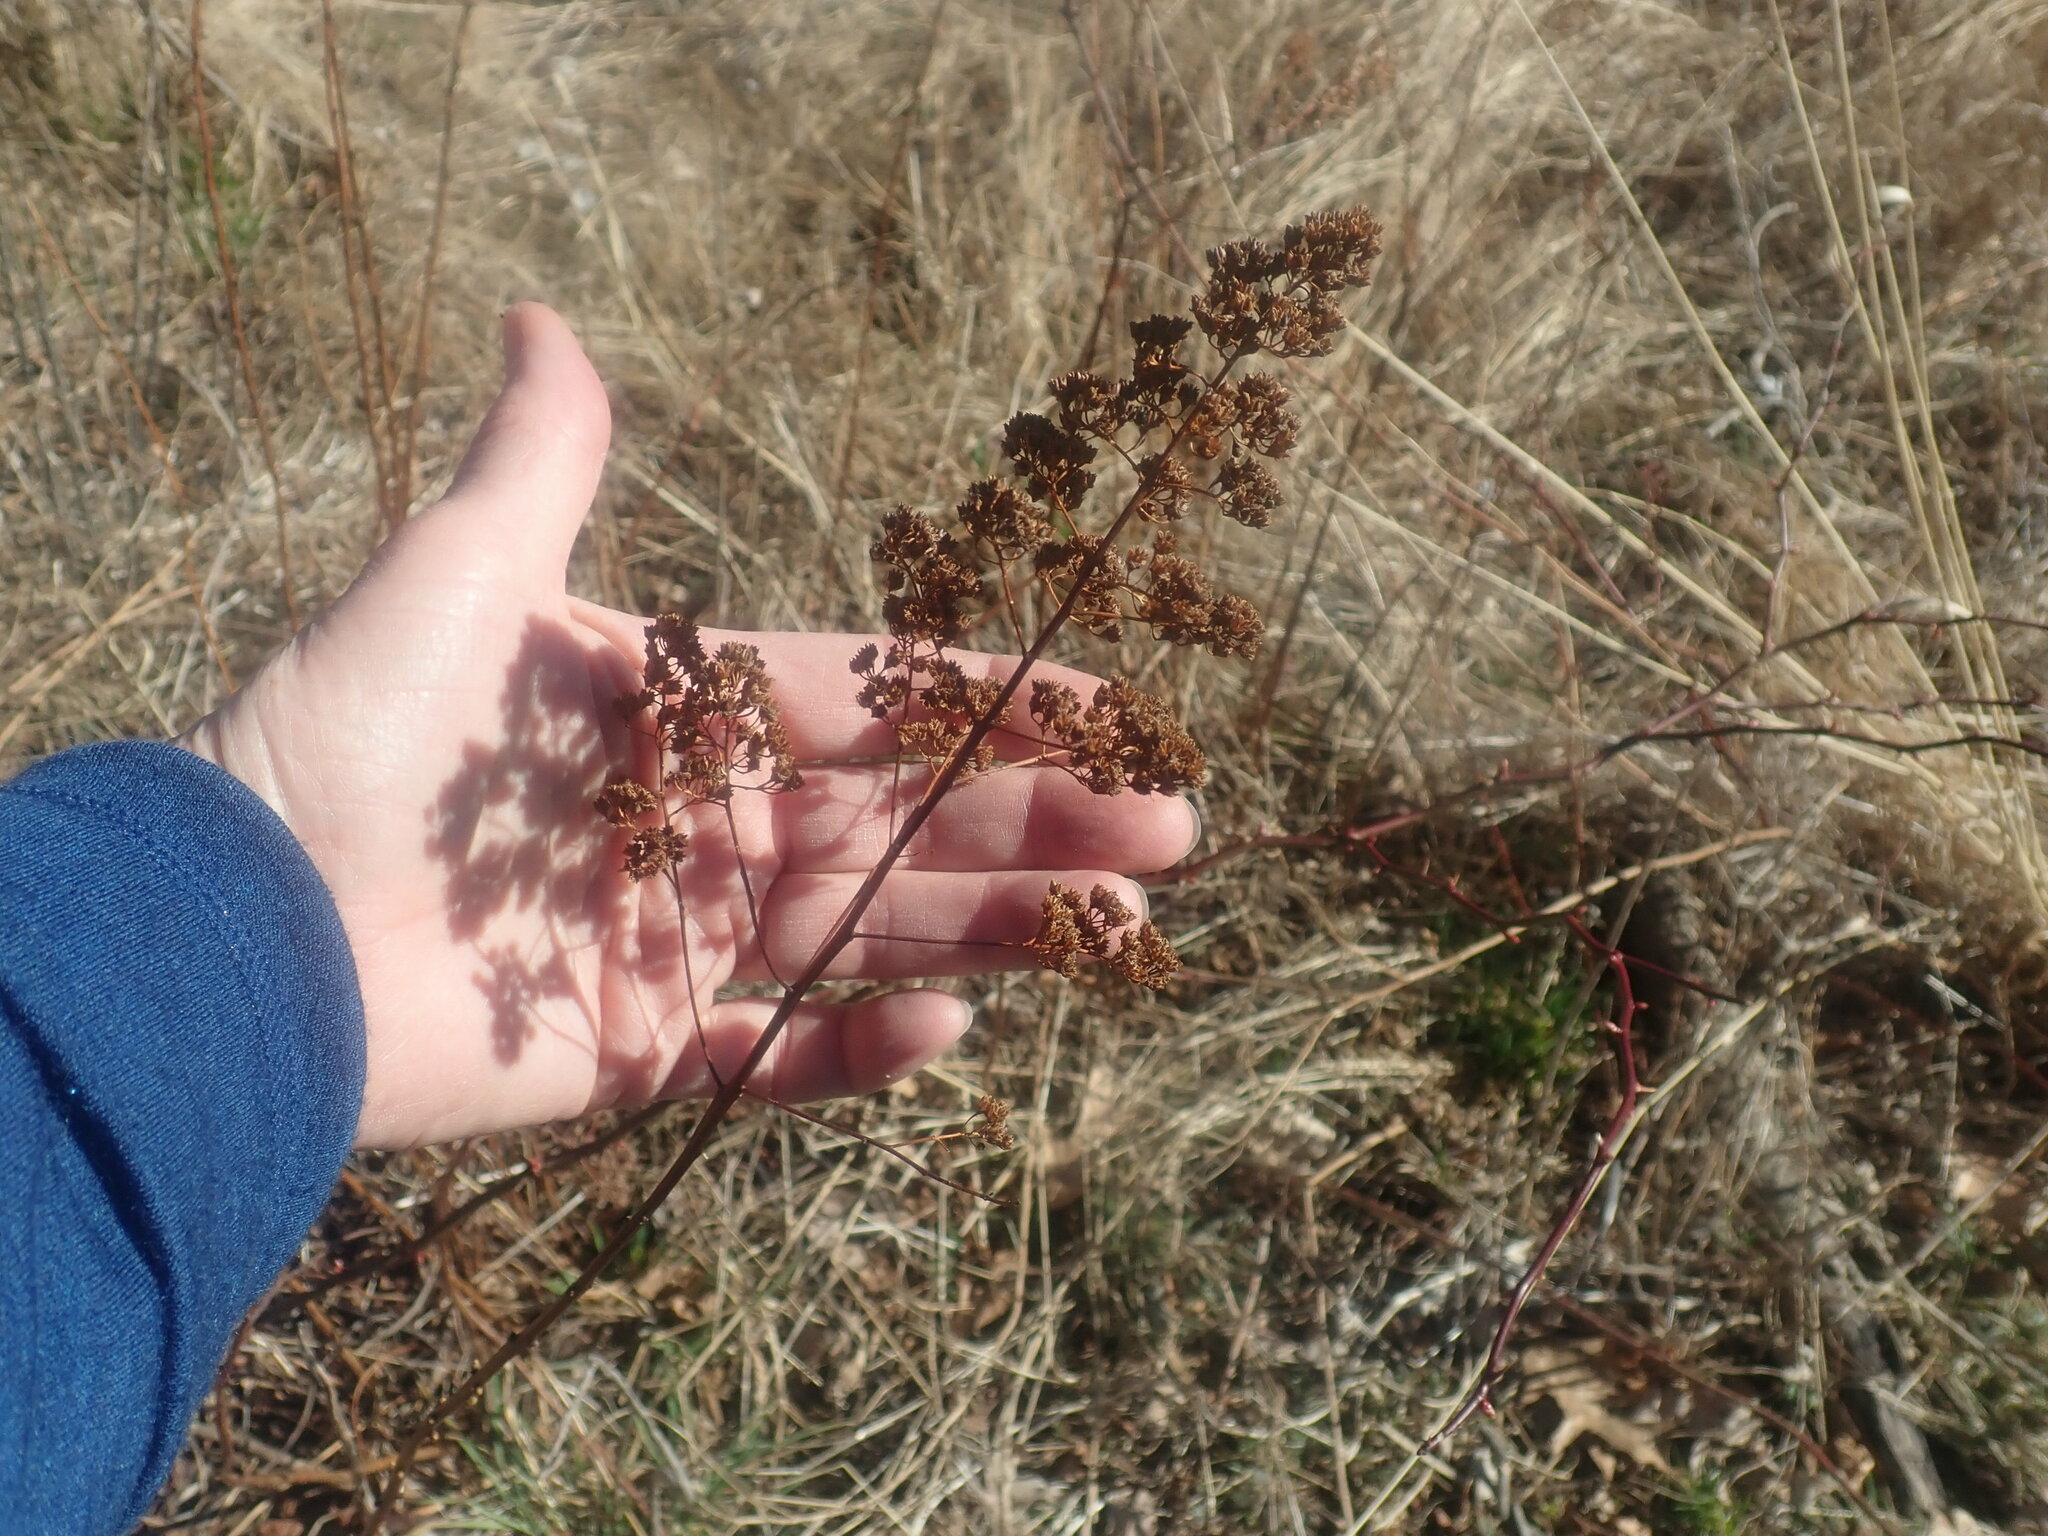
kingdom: Plantae
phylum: Tracheophyta
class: Magnoliopsida
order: Rosales
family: Rosaceae
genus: Spiraea
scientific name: Spiraea alba
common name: Pale bridewort
